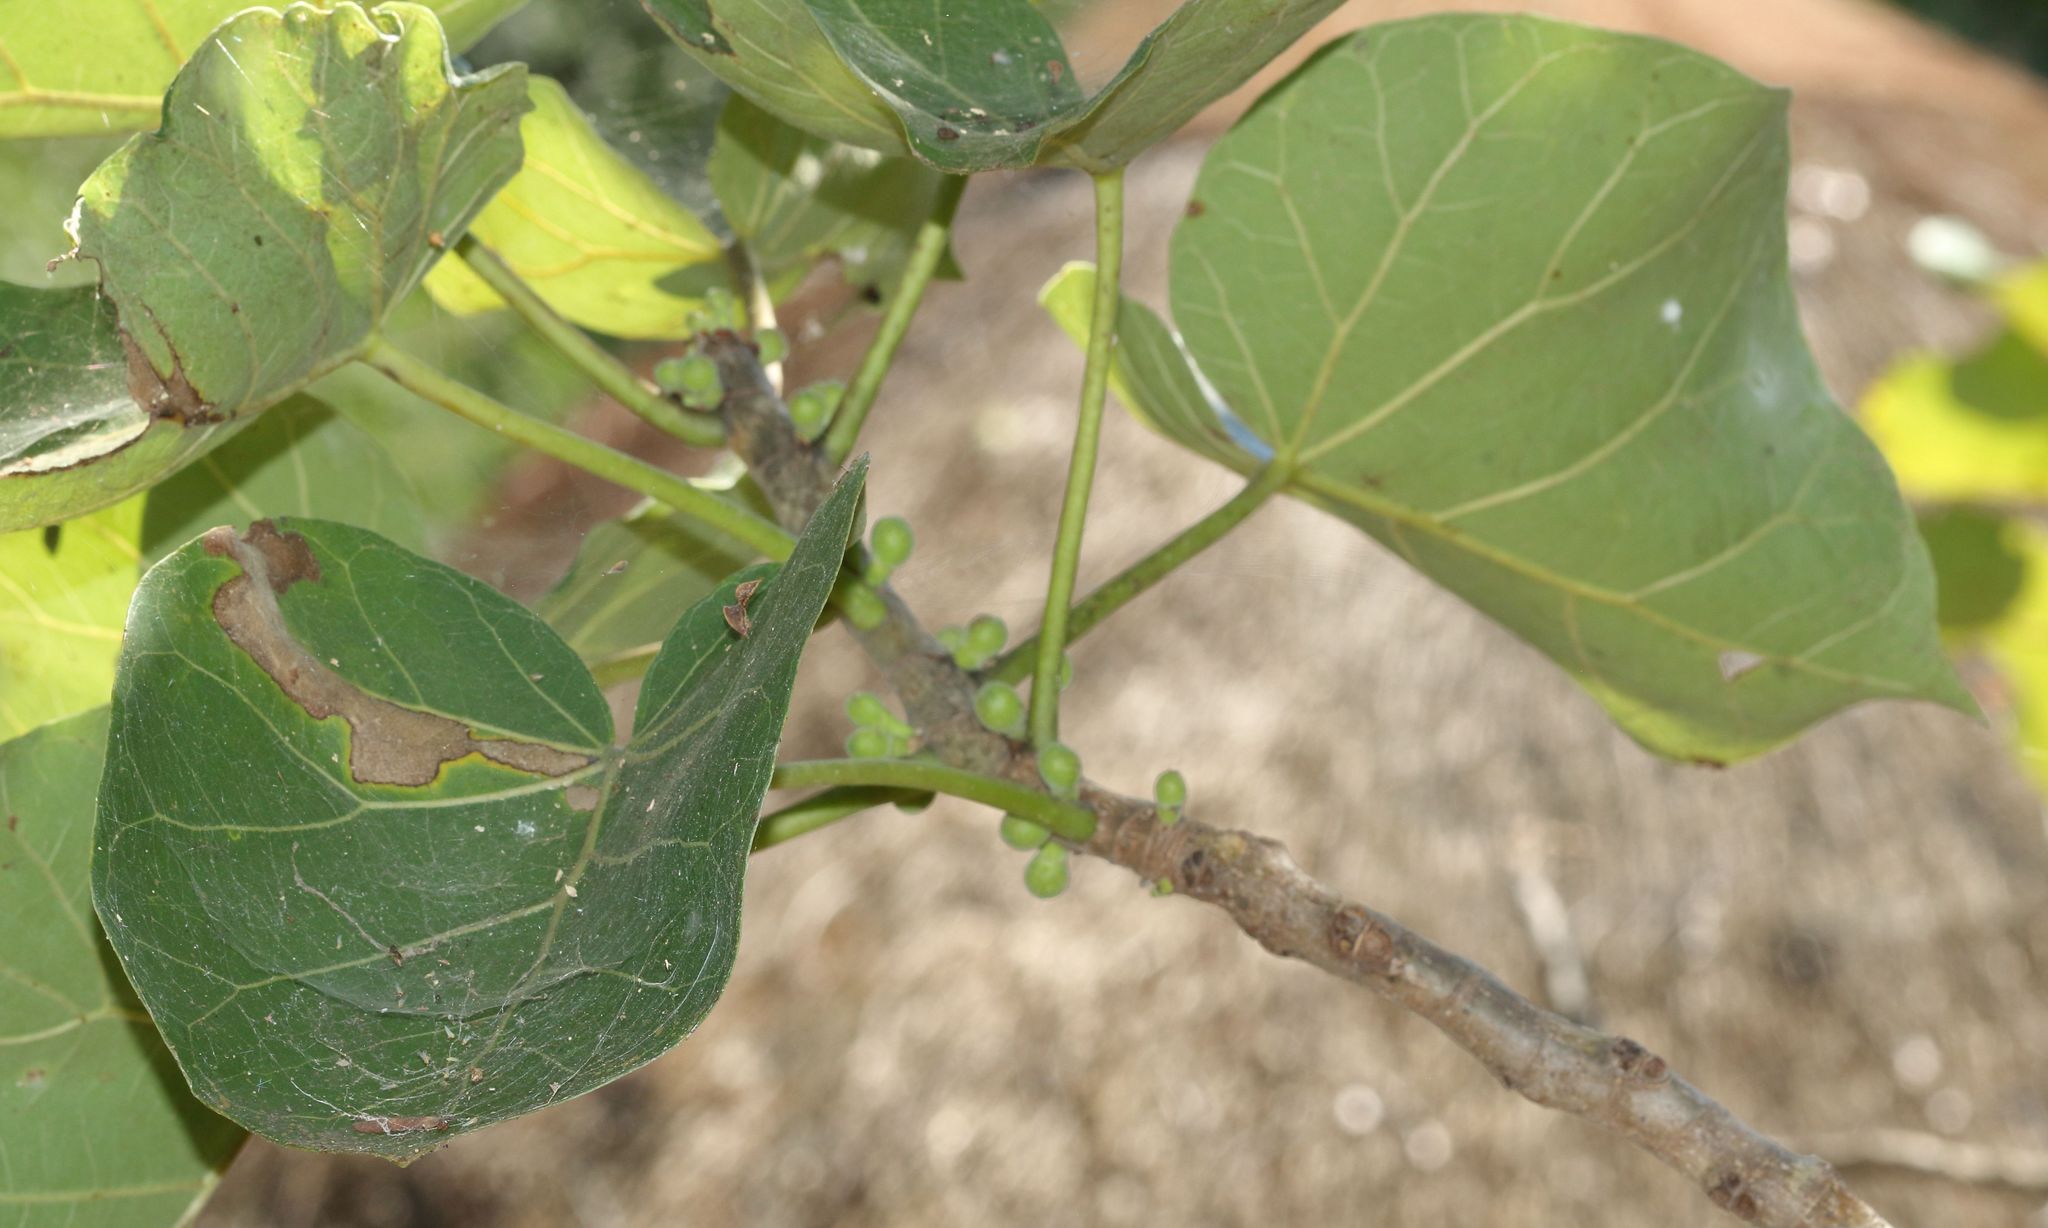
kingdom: Plantae
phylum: Tracheophyta
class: Magnoliopsida
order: Rosales
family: Moraceae
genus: Ficus
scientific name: Ficus abutilifolia
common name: Large-leaved rock fig
